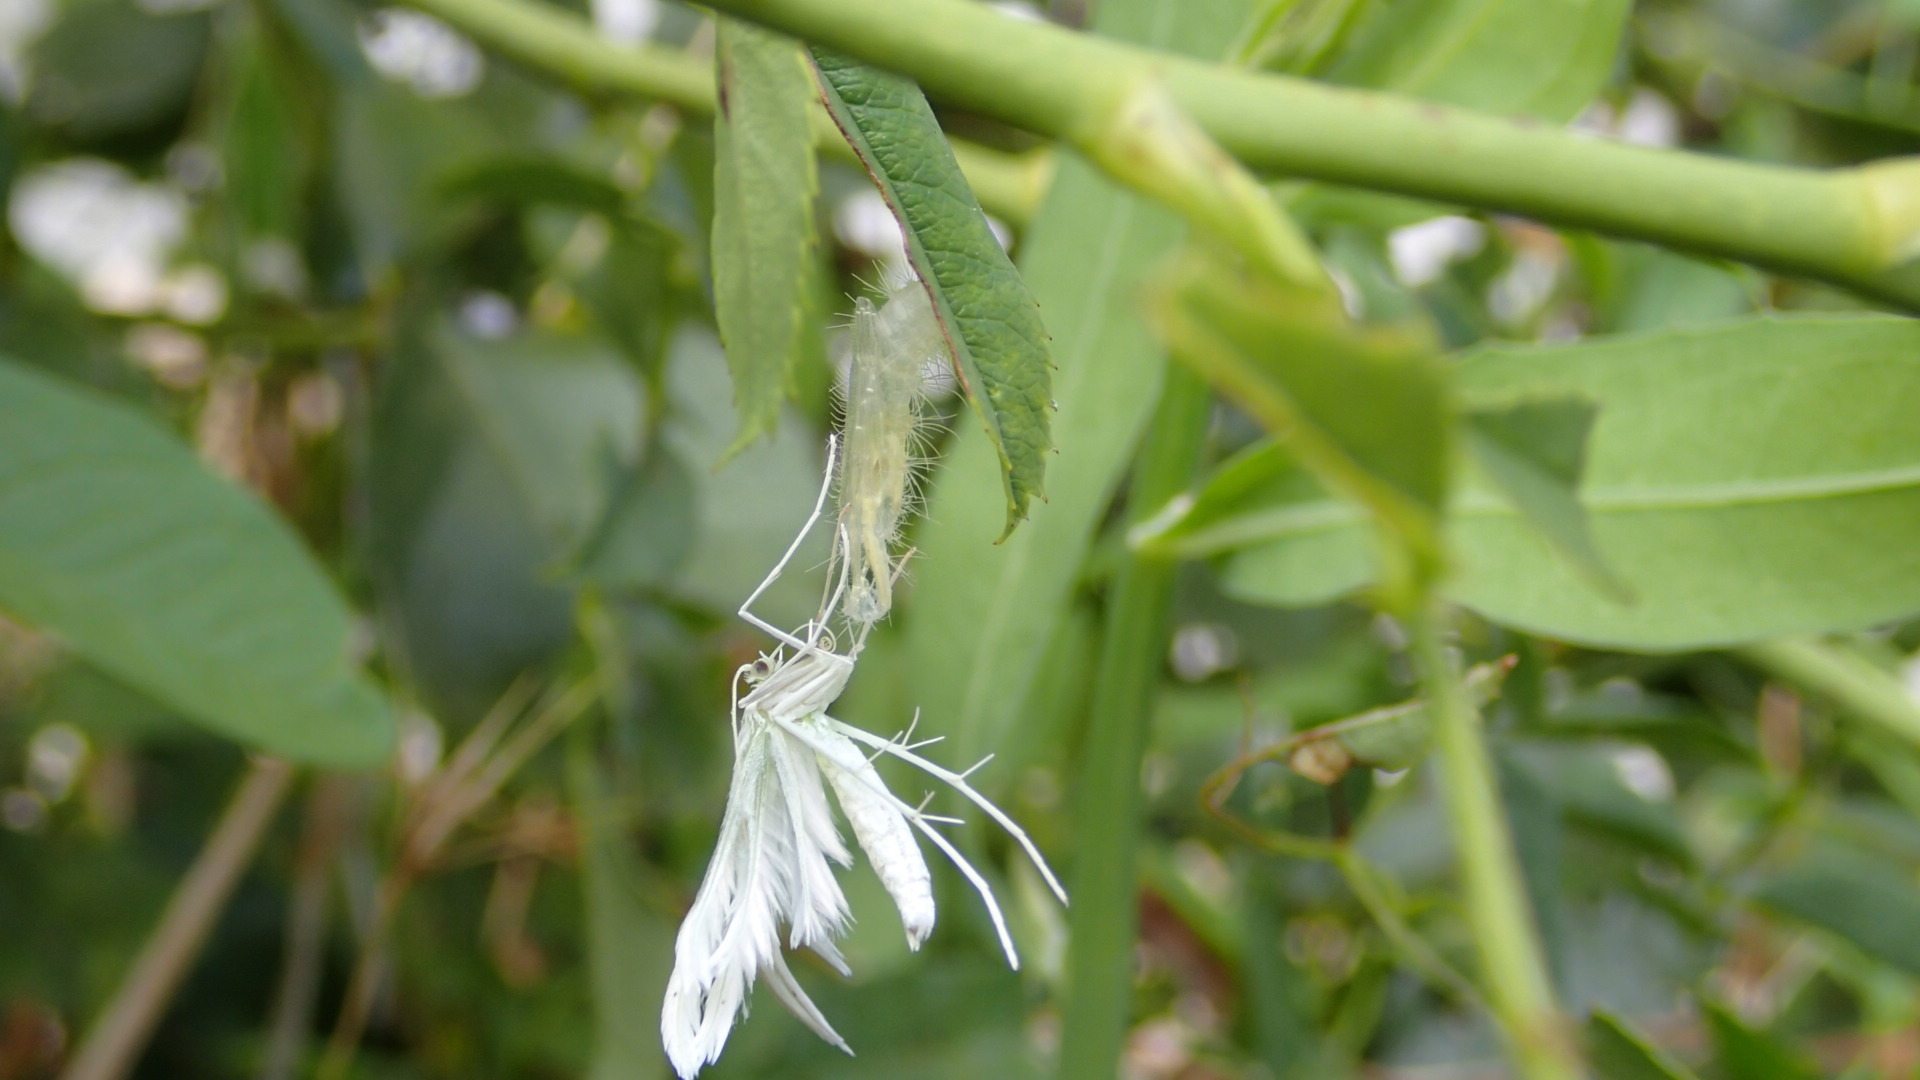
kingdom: Animalia
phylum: Arthropoda
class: Insecta
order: Lepidoptera
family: Pterophoridae
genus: Pterophorus
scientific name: Pterophorus pentadactyla
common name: White plume moth
